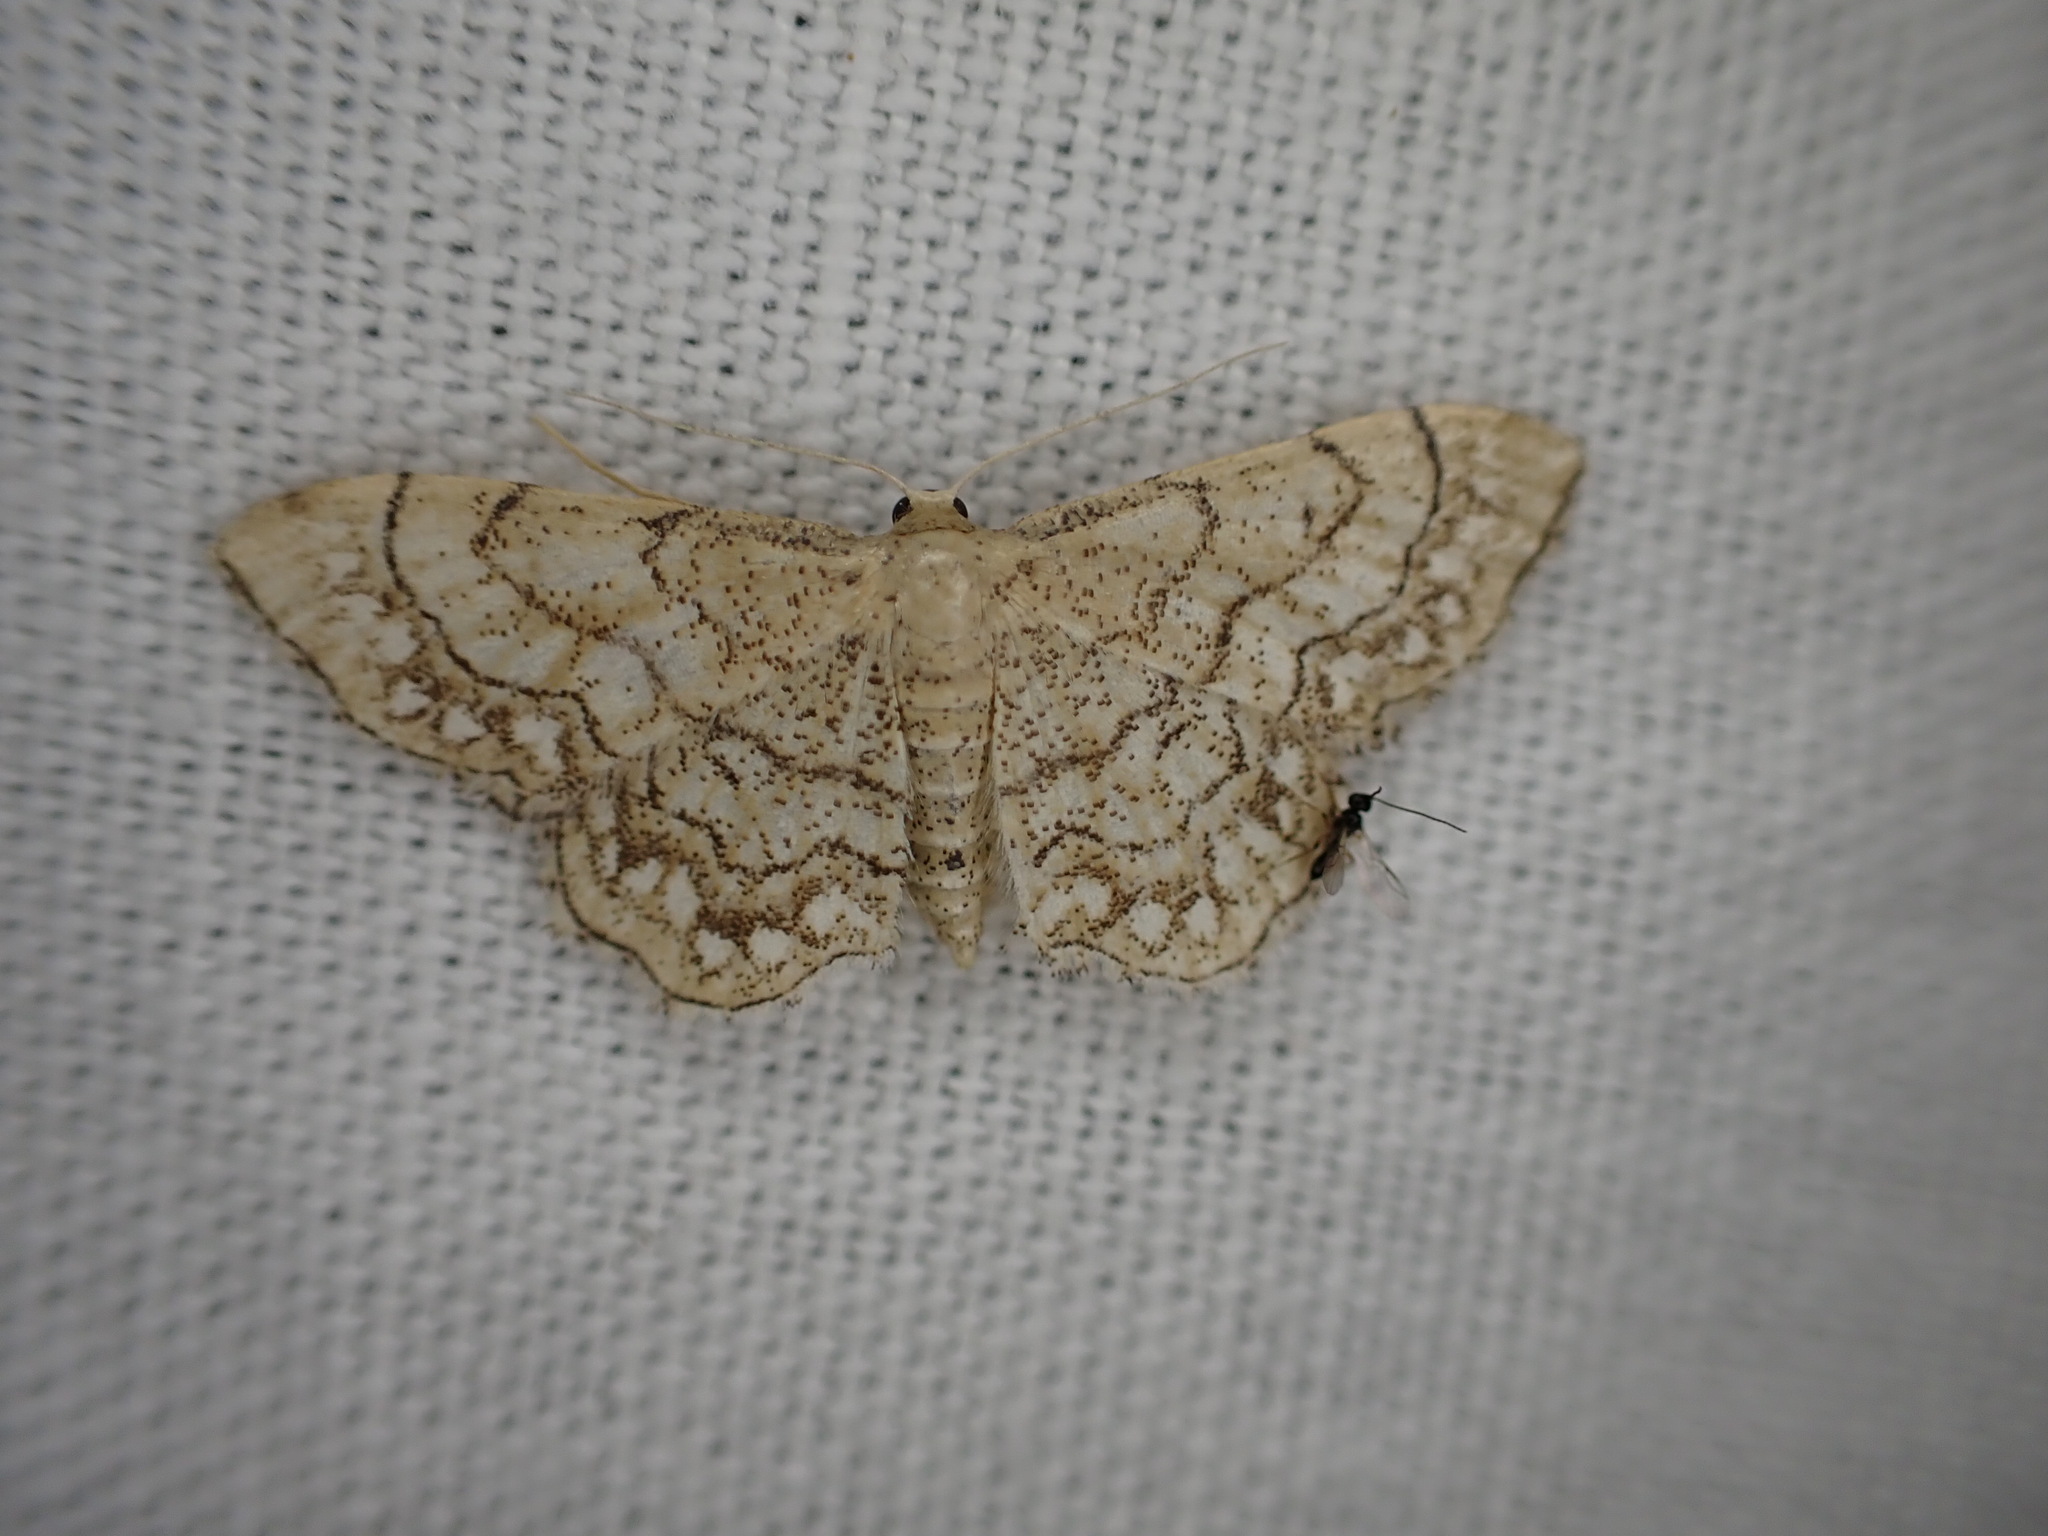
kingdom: Animalia
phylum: Arthropoda
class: Insecta
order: Lepidoptera
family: Geometridae
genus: Idaea
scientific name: Idaea moniliata
